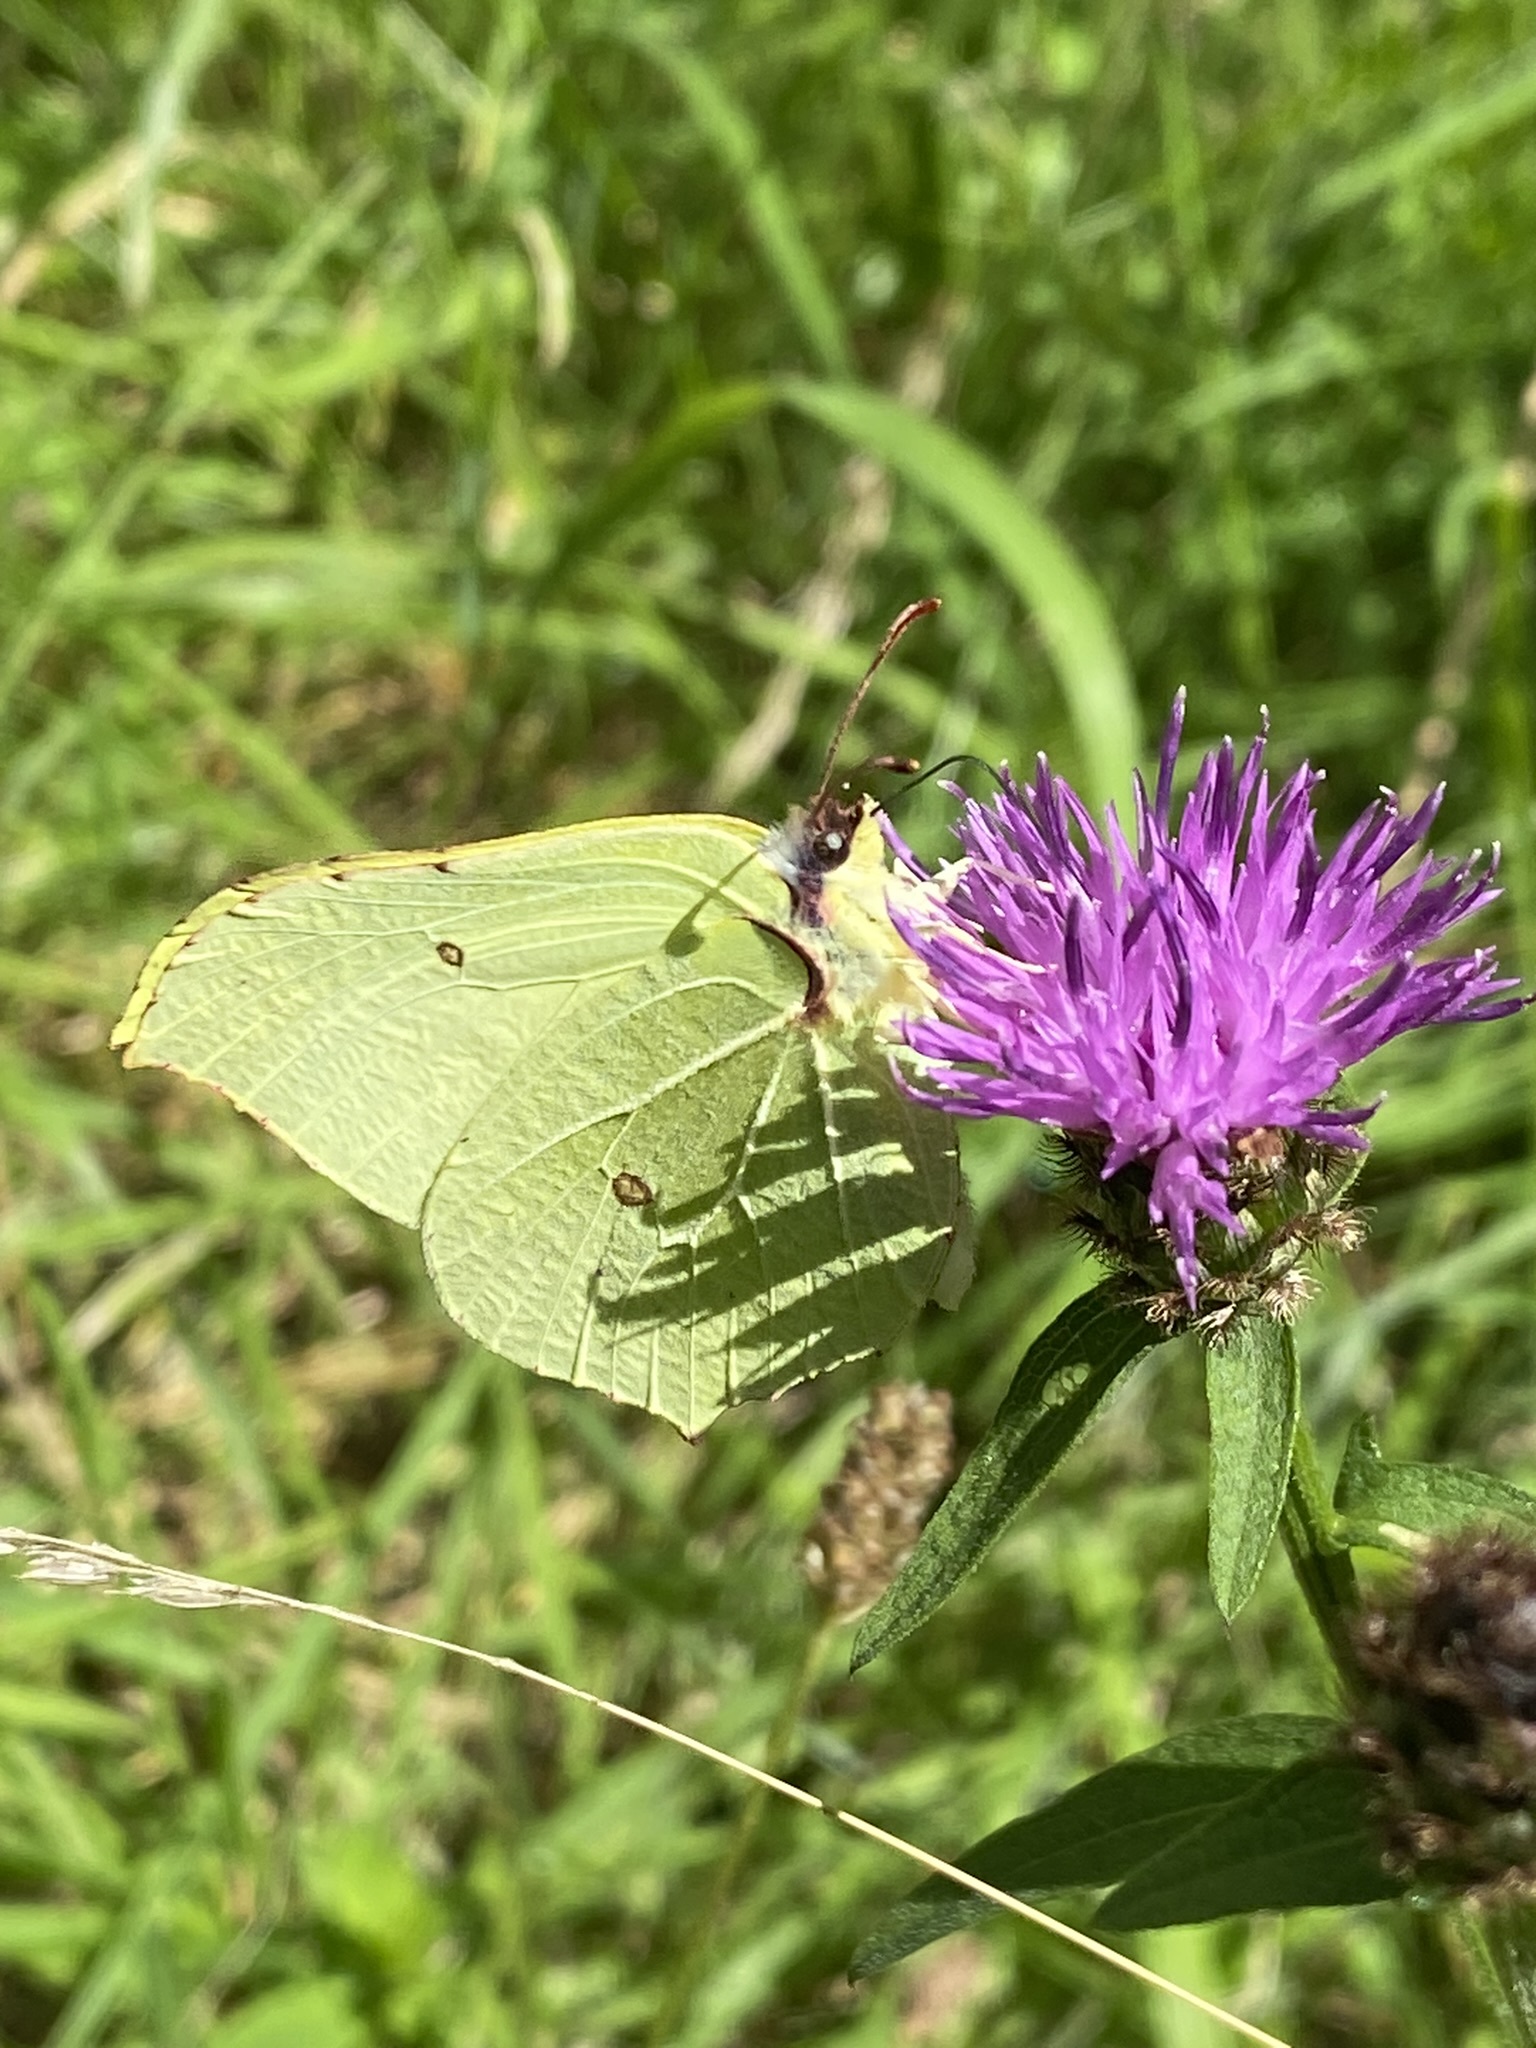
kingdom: Animalia
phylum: Arthropoda
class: Insecta
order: Lepidoptera
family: Pieridae
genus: Gonepteryx
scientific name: Gonepteryx rhamni
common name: Brimstone
